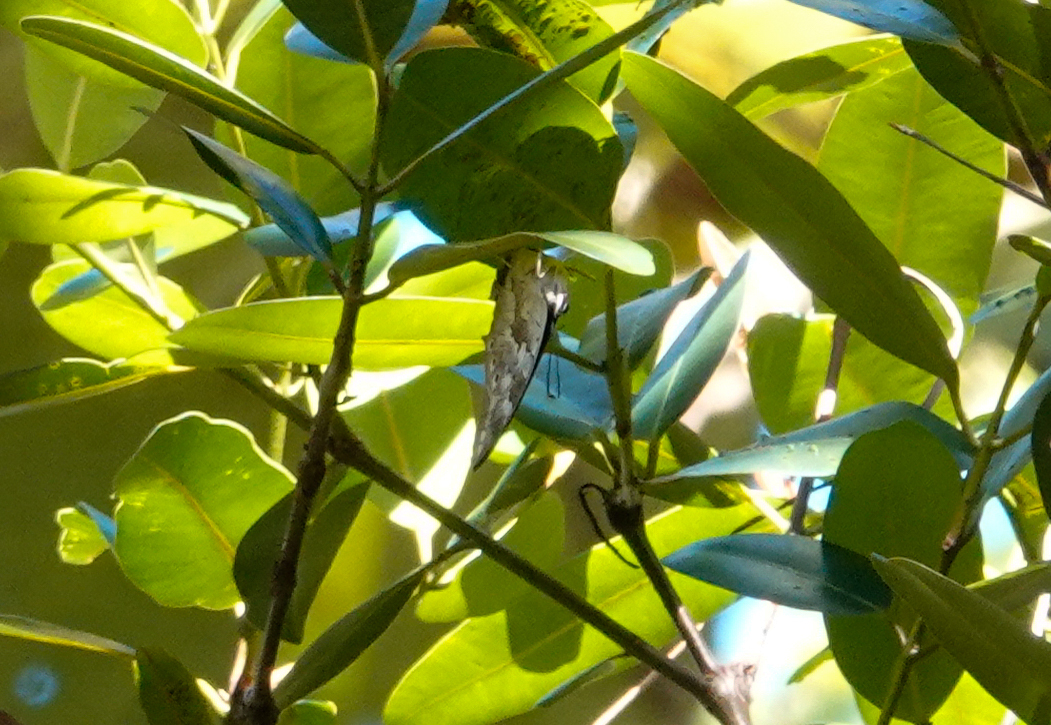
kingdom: Animalia
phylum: Arthropoda
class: Insecta
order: Lepidoptera
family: Nymphalidae
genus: Prepona
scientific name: Prepona demophoon
